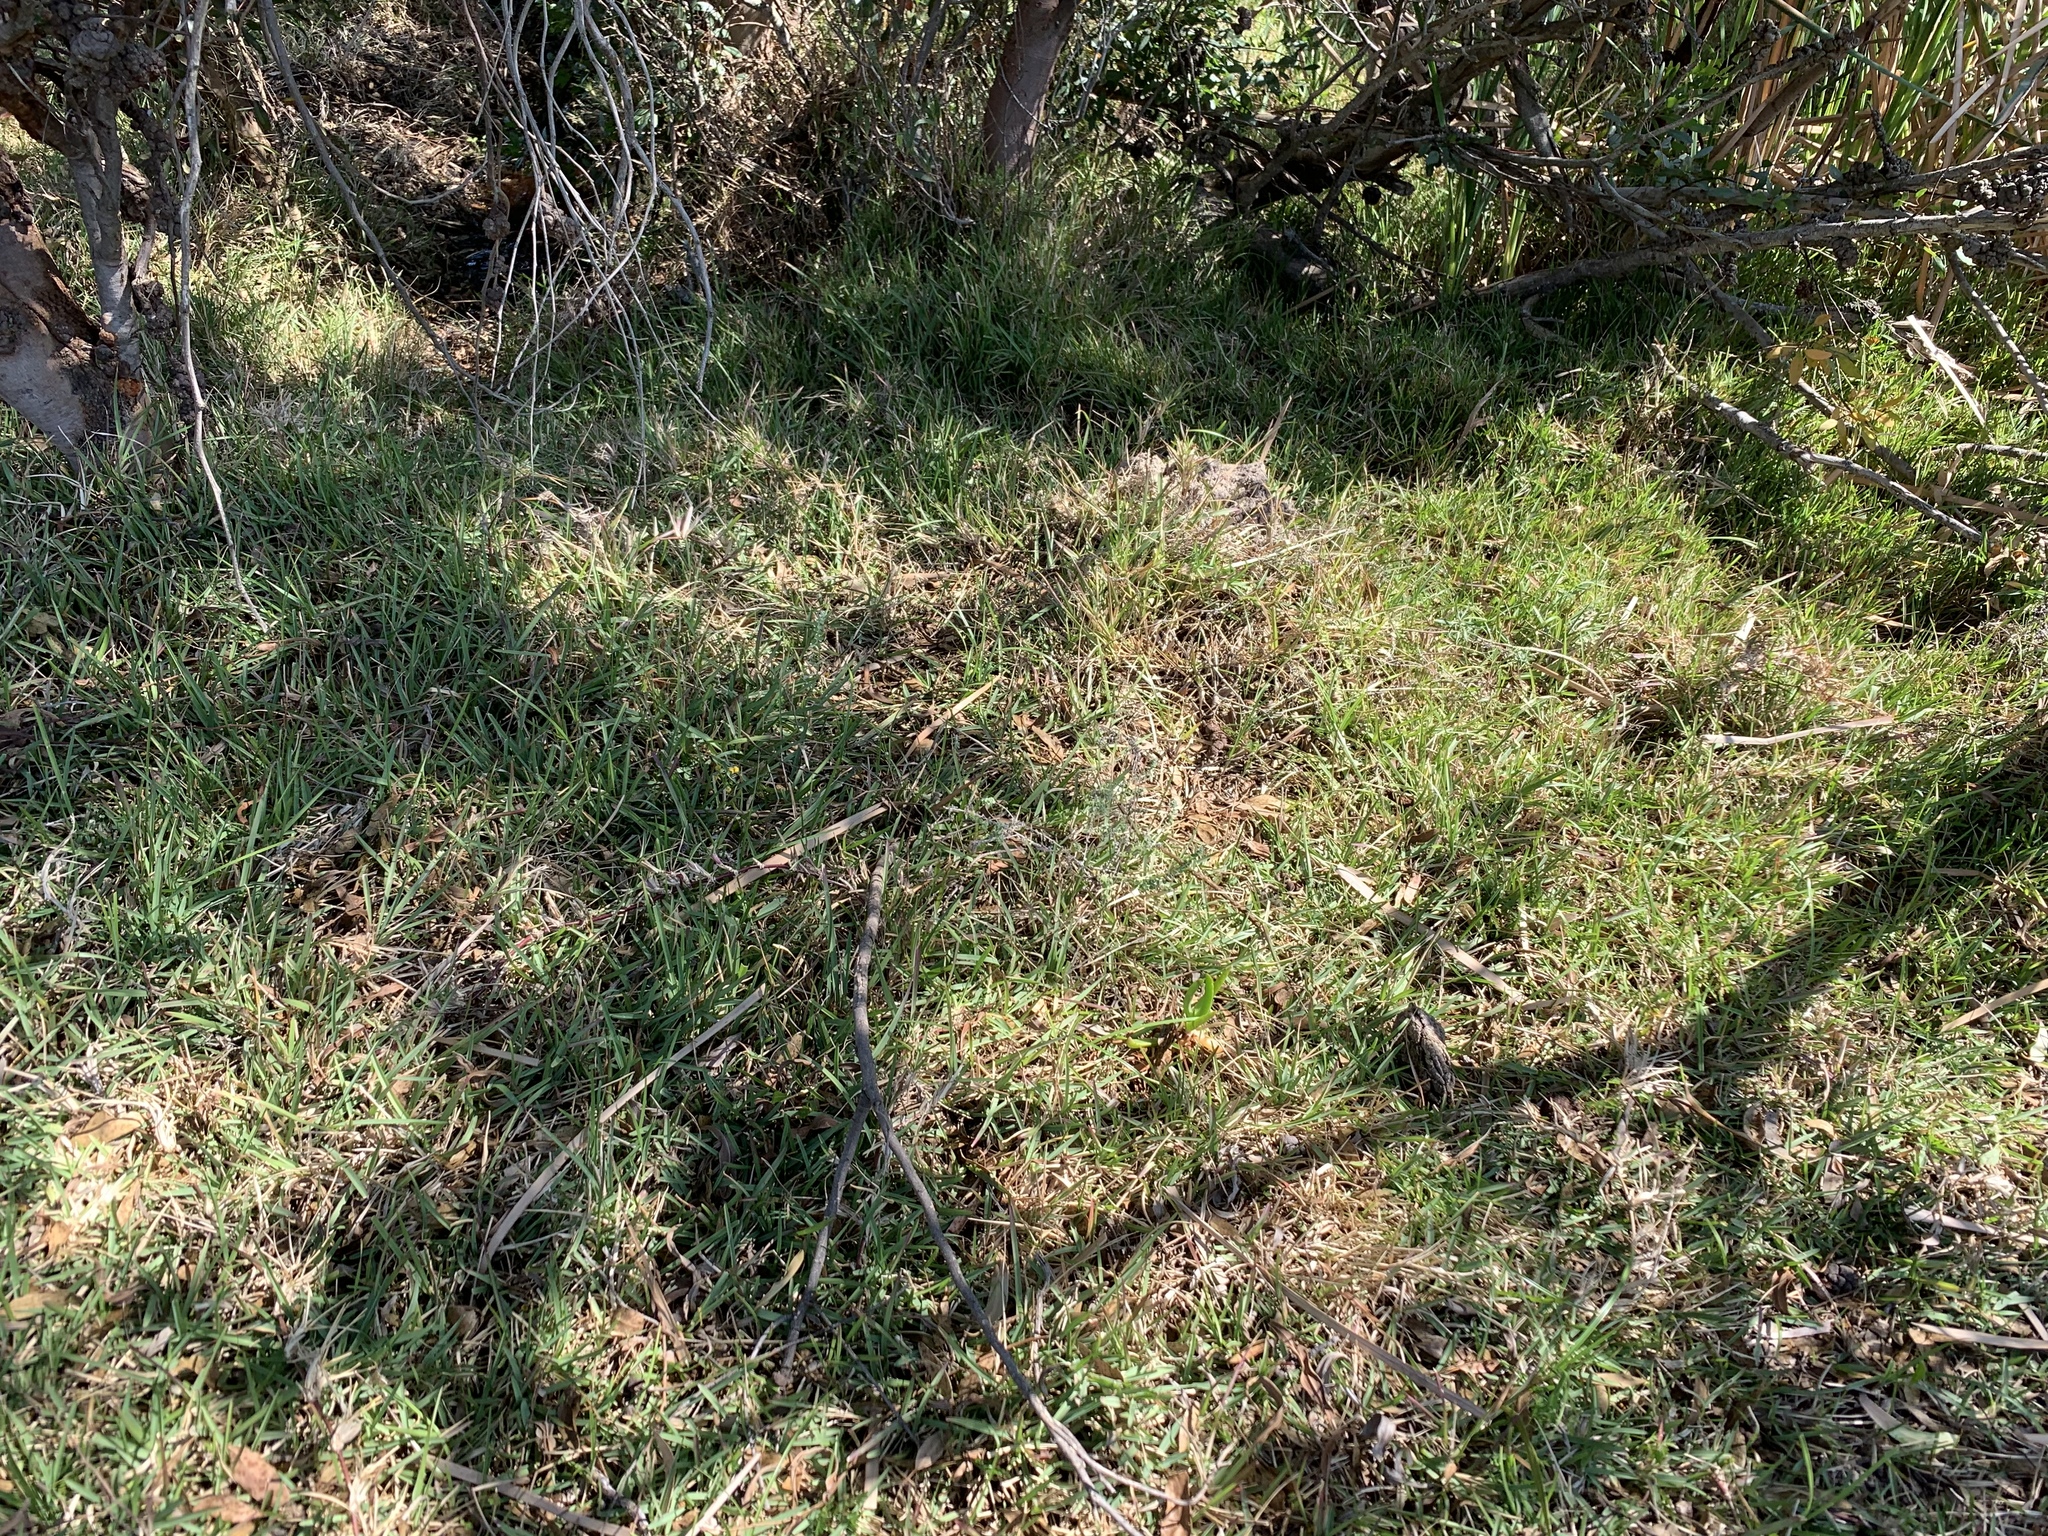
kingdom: Plantae
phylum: Tracheophyta
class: Liliopsida
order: Poales
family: Poaceae
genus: Stenotaphrum
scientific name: Stenotaphrum secundatum
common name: St. augustine grass
